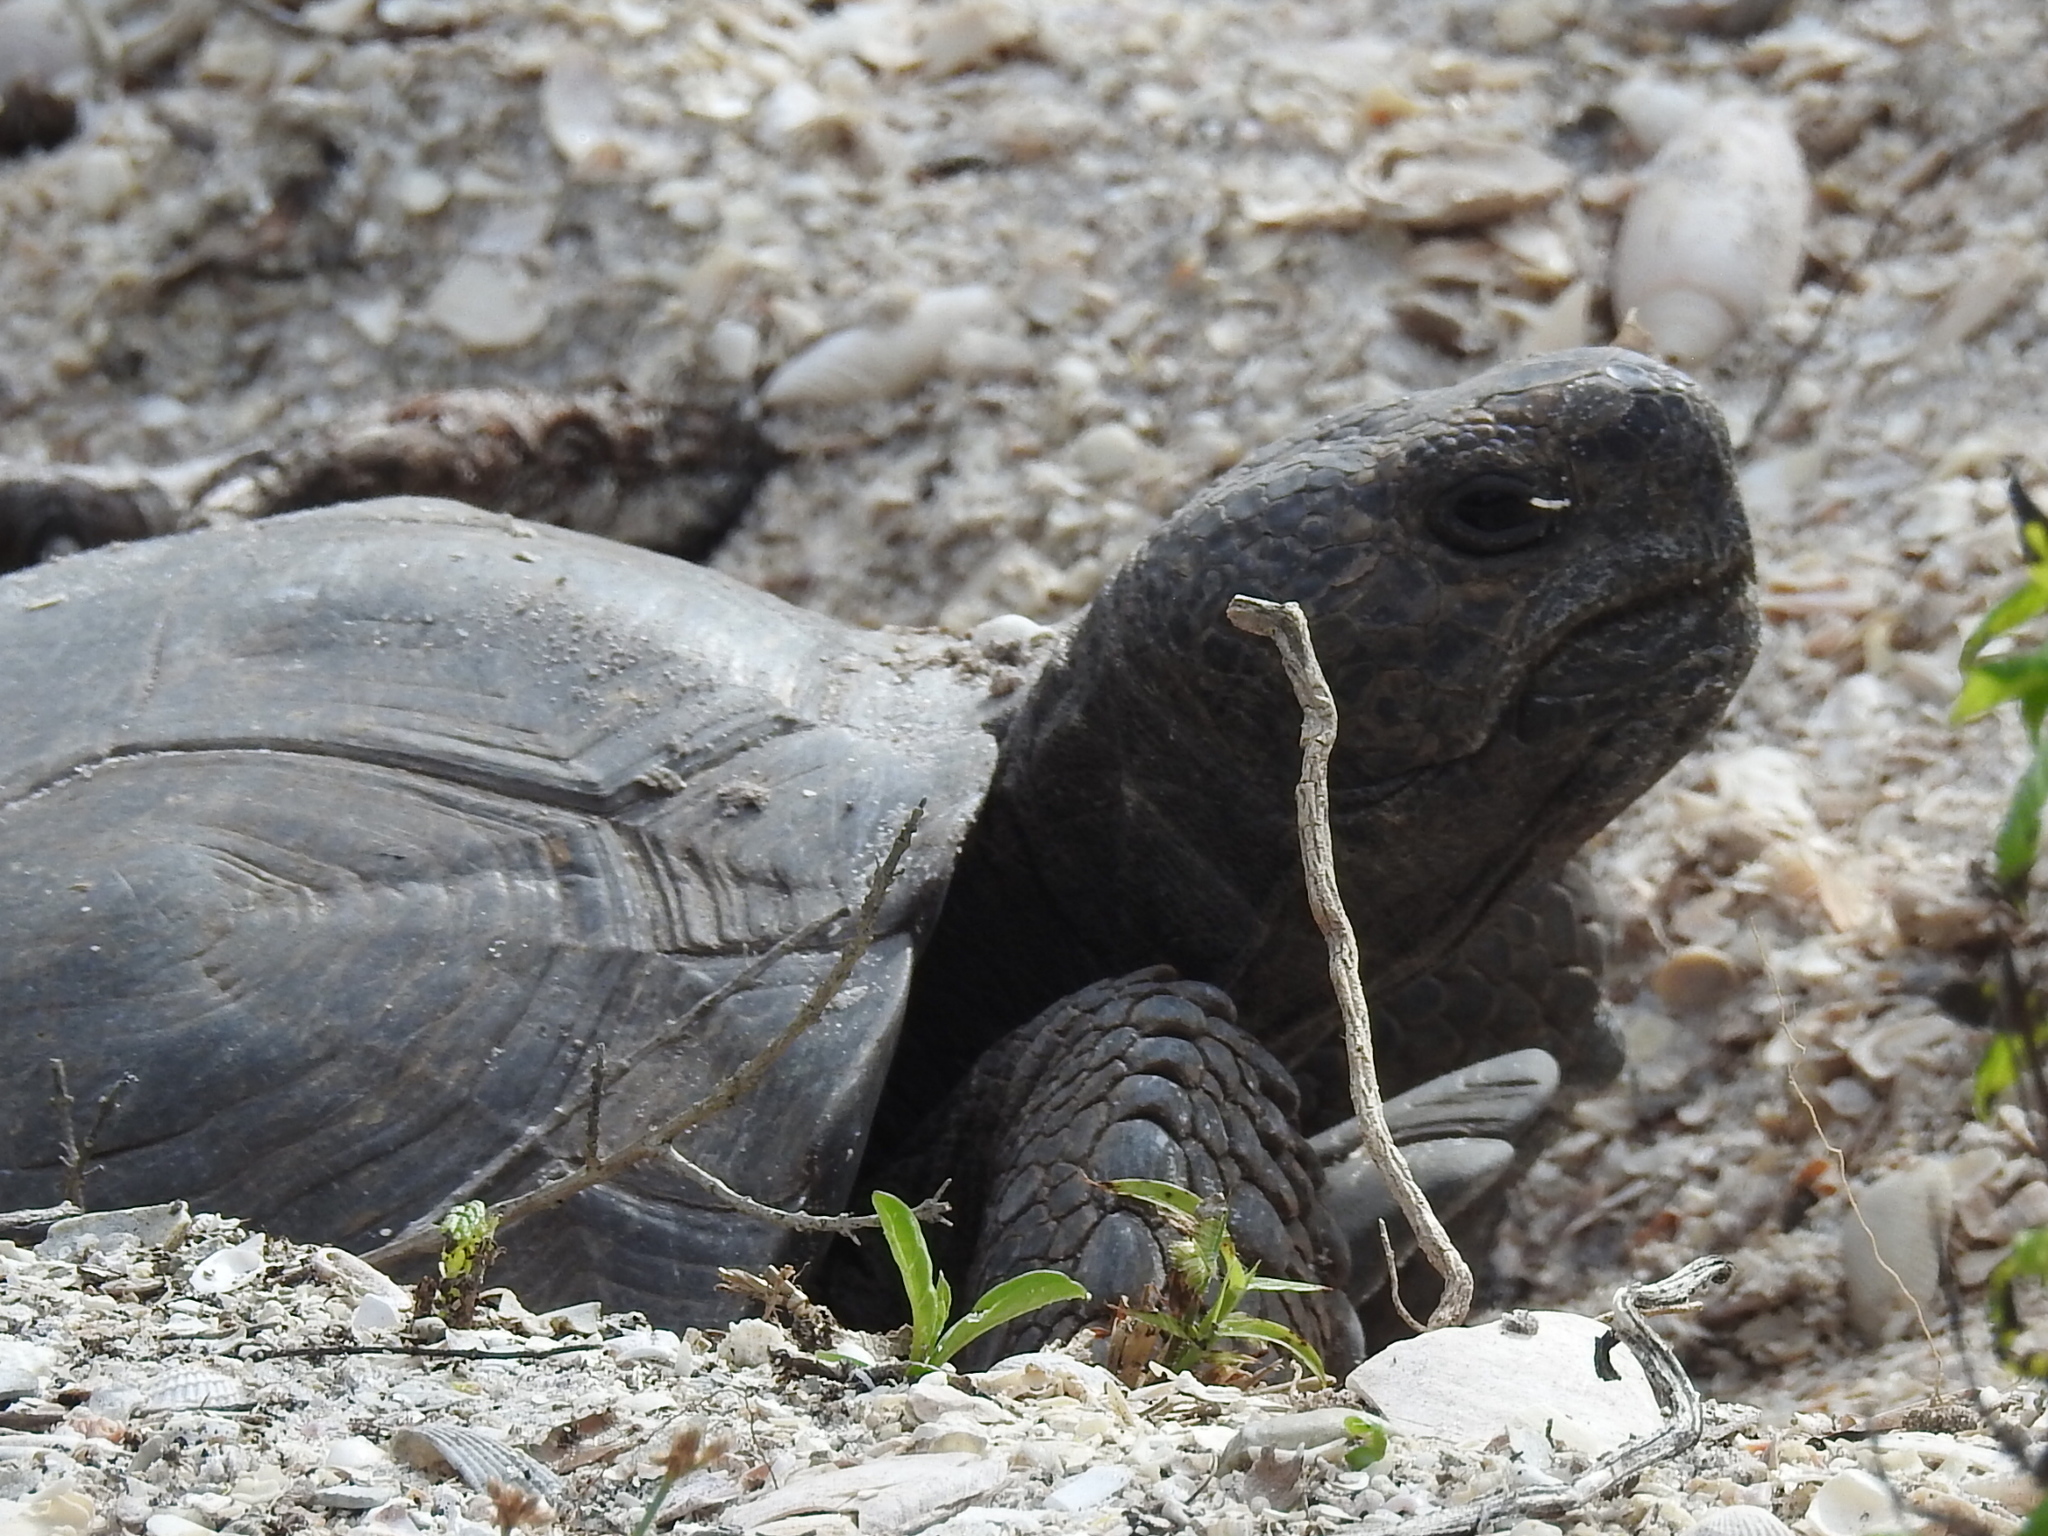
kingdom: Animalia
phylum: Chordata
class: Testudines
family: Testudinidae
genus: Gopherus
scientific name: Gopherus polyphemus
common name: Florida gopher tortoise
